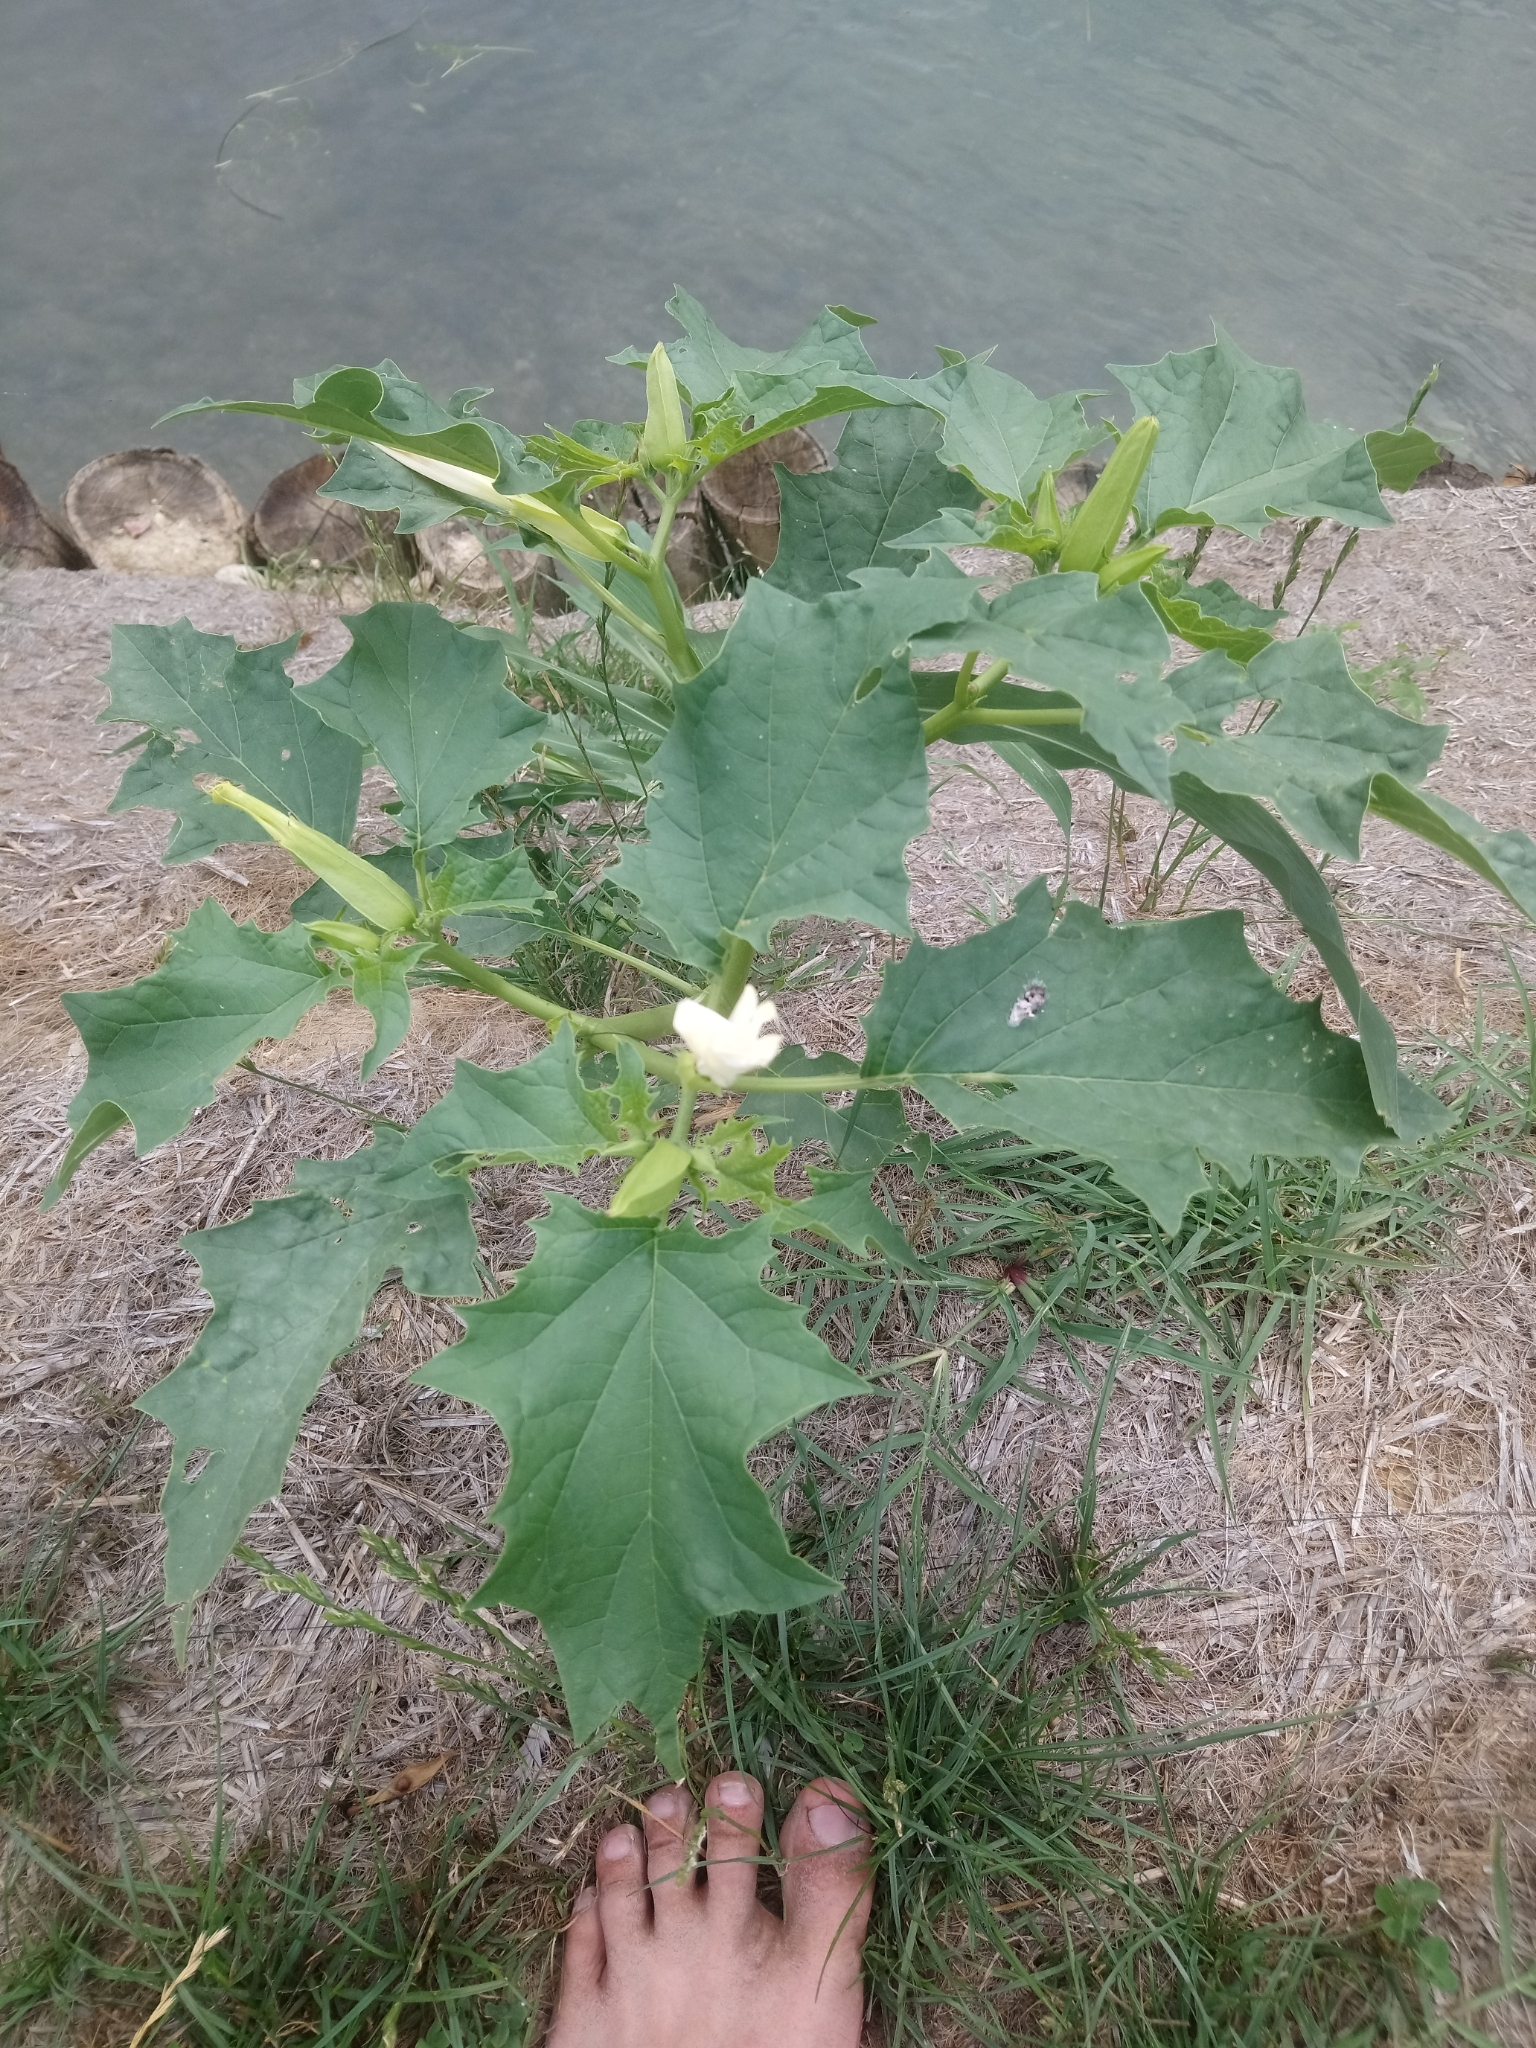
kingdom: Plantae
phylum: Tracheophyta
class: Magnoliopsida
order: Solanales
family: Solanaceae
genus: Datura
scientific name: Datura stramonium
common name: Thorn-apple
